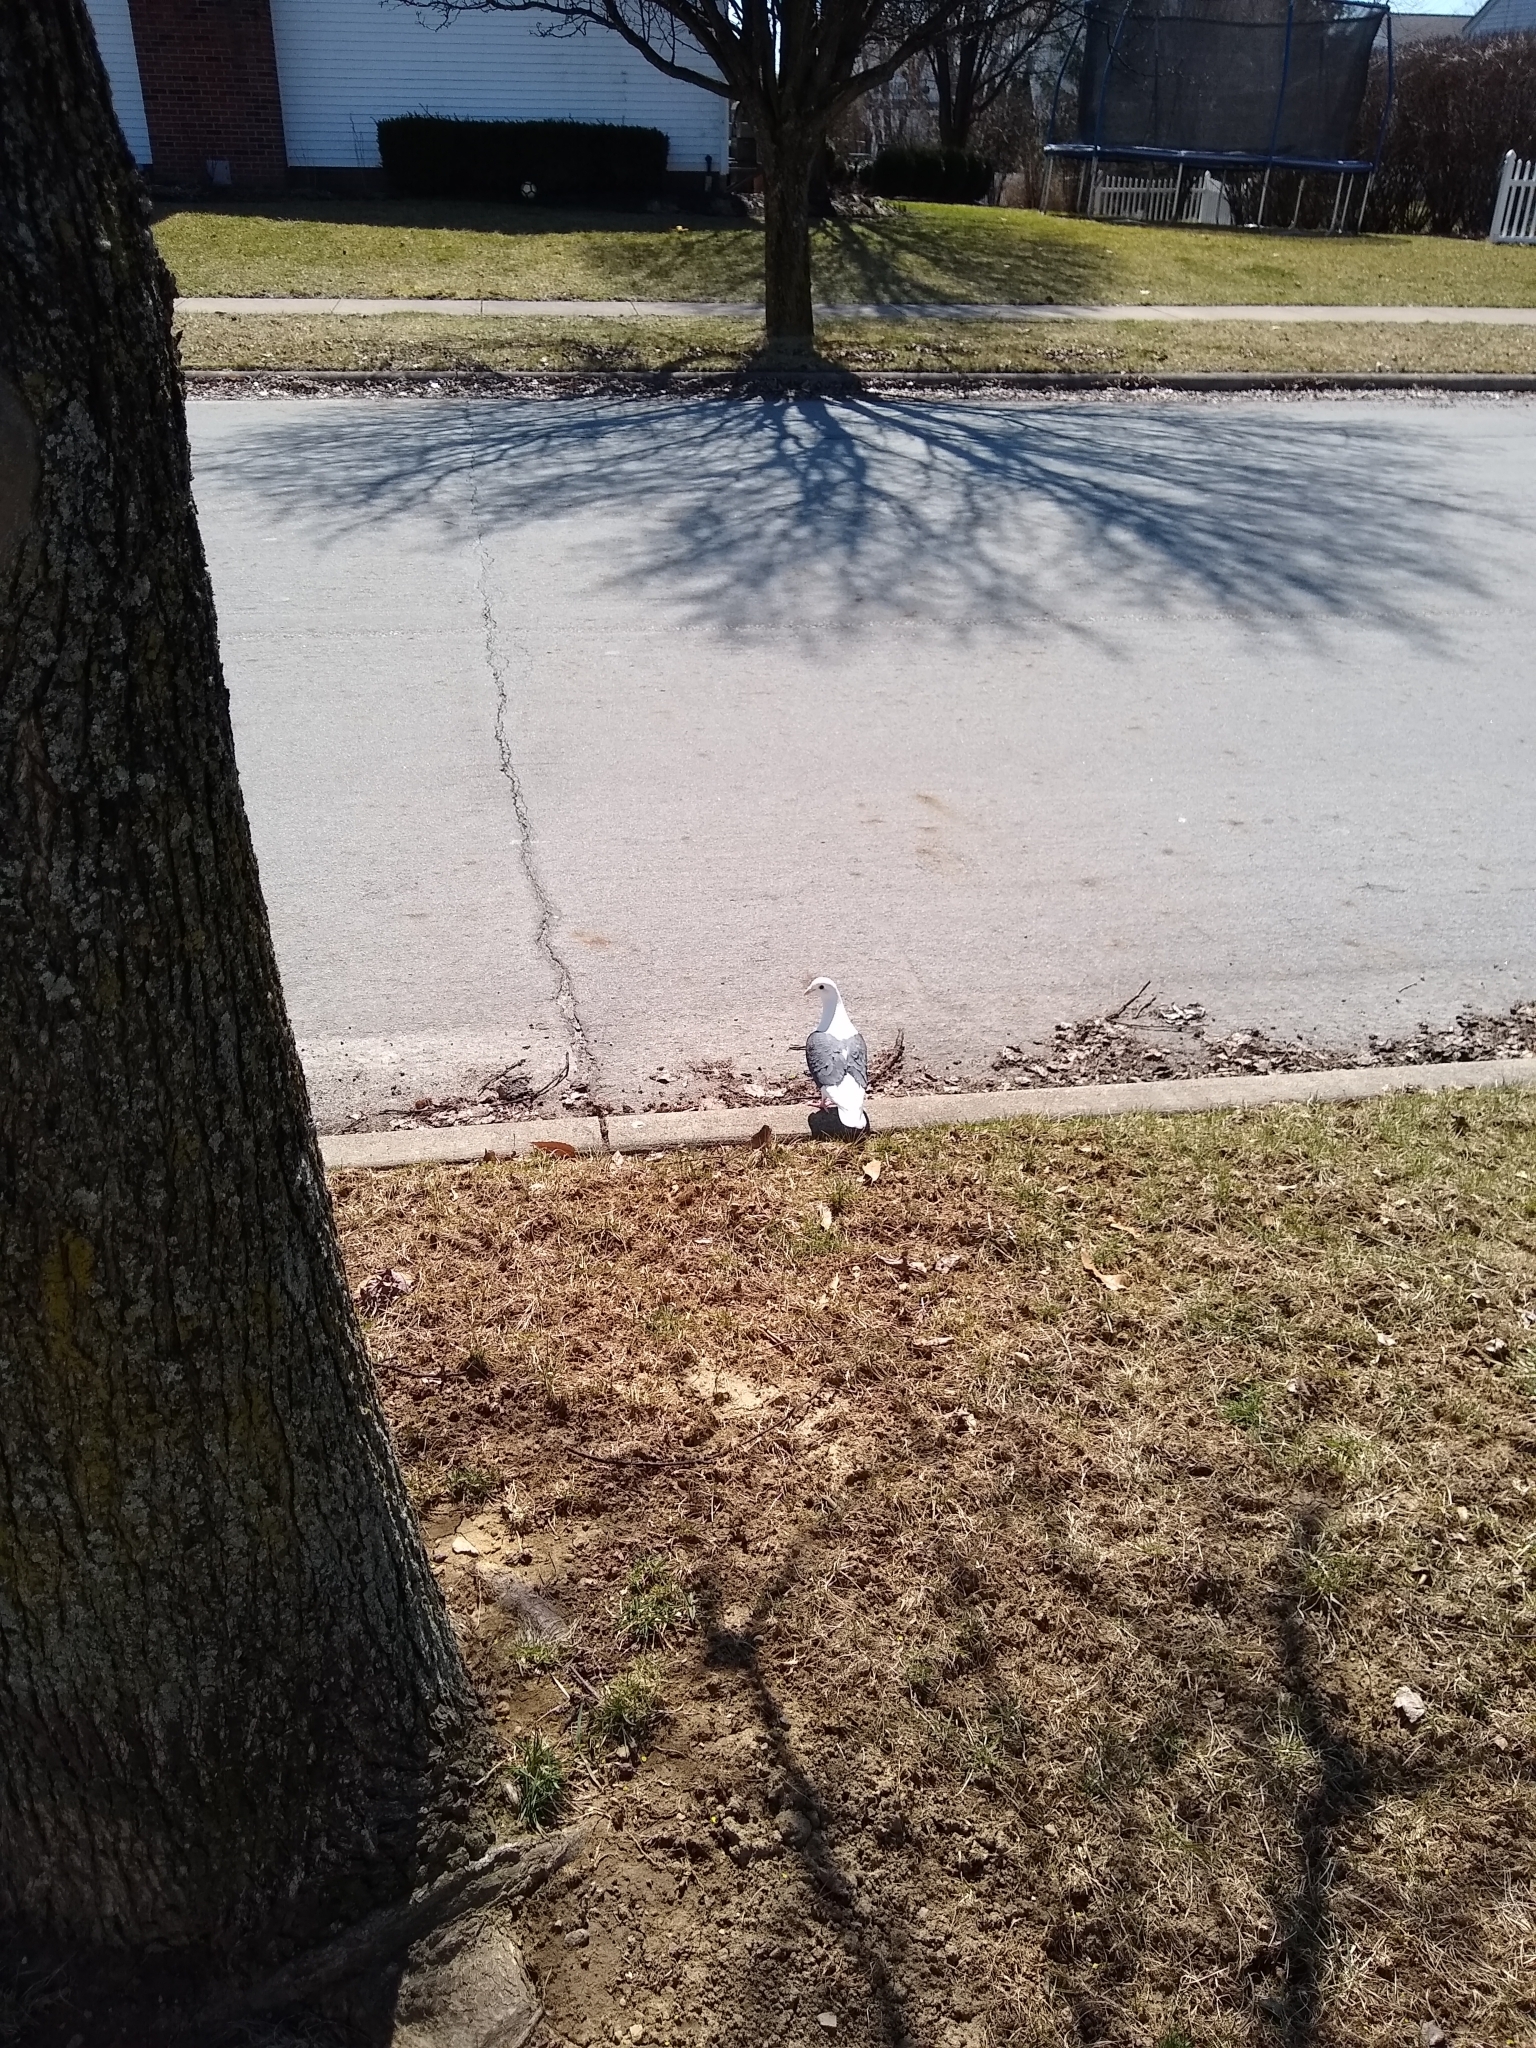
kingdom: Animalia
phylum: Chordata
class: Aves
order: Columbiformes
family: Columbidae
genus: Columba
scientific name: Columba livia
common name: Rock pigeon
